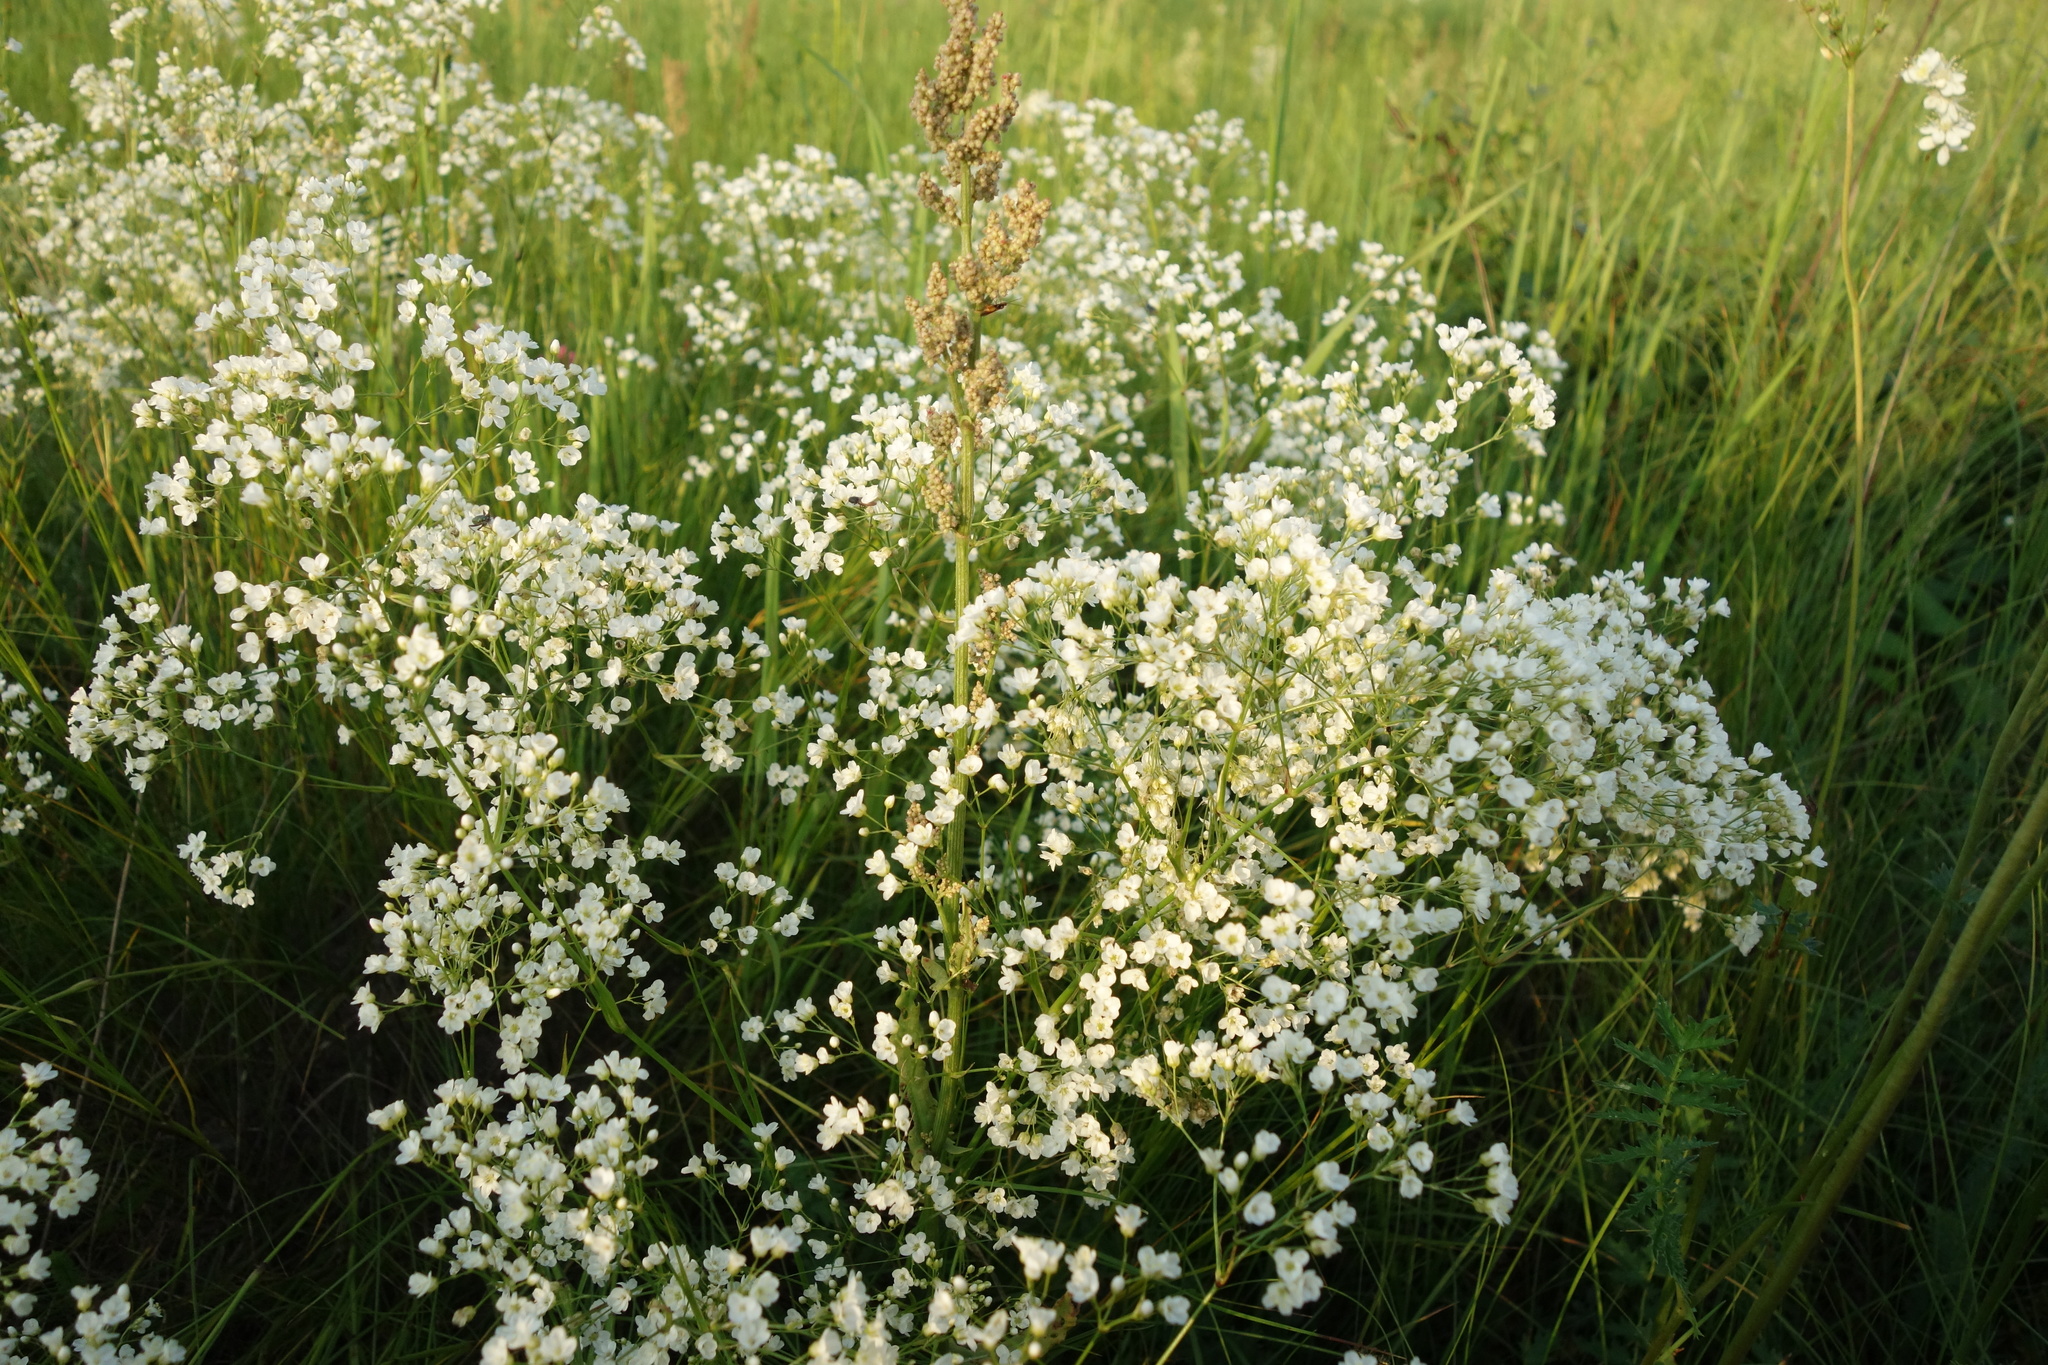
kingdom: Plantae
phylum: Tracheophyta
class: Magnoliopsida
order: Caryophyllales
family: Caryophyllaceae
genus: Eremogone
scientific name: Eremogone longifolia
